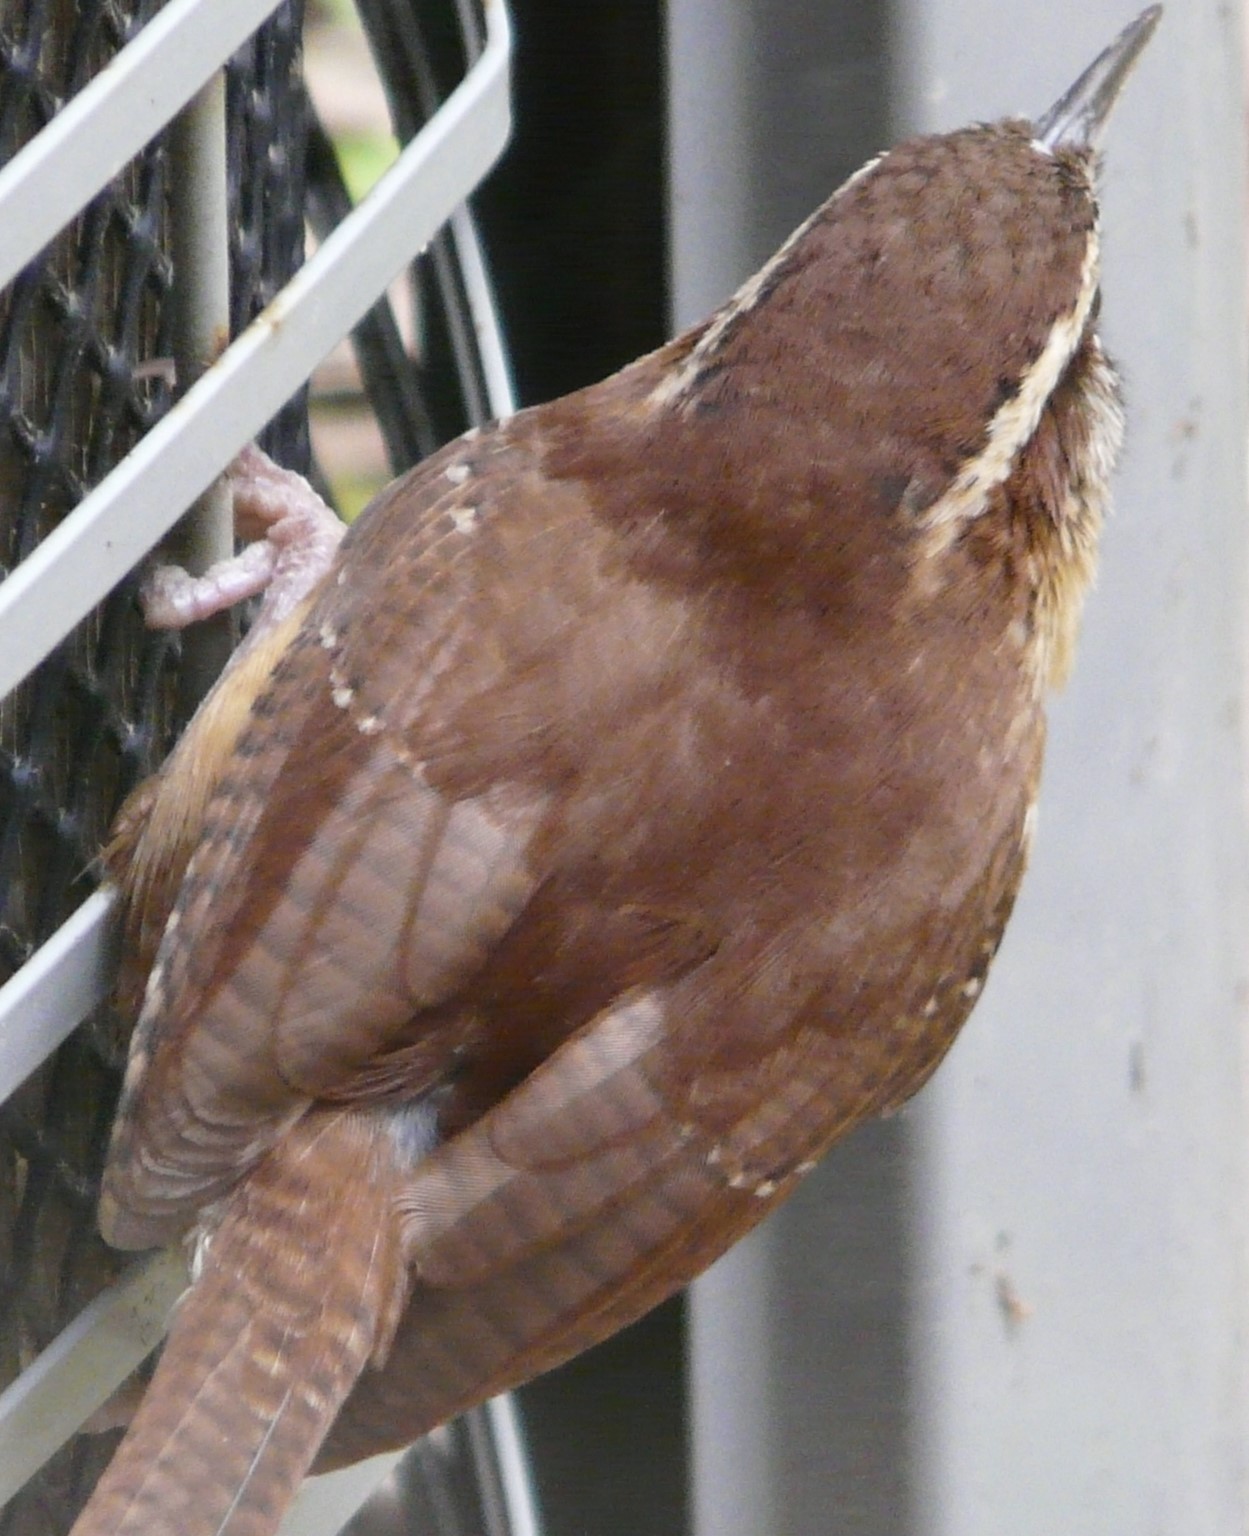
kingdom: Animalia
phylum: Chordata
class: Aves
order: Passeriformes
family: Troglodytidae
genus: Thryothorus
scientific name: Thryothorus ludovicianus
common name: Carolina wren
